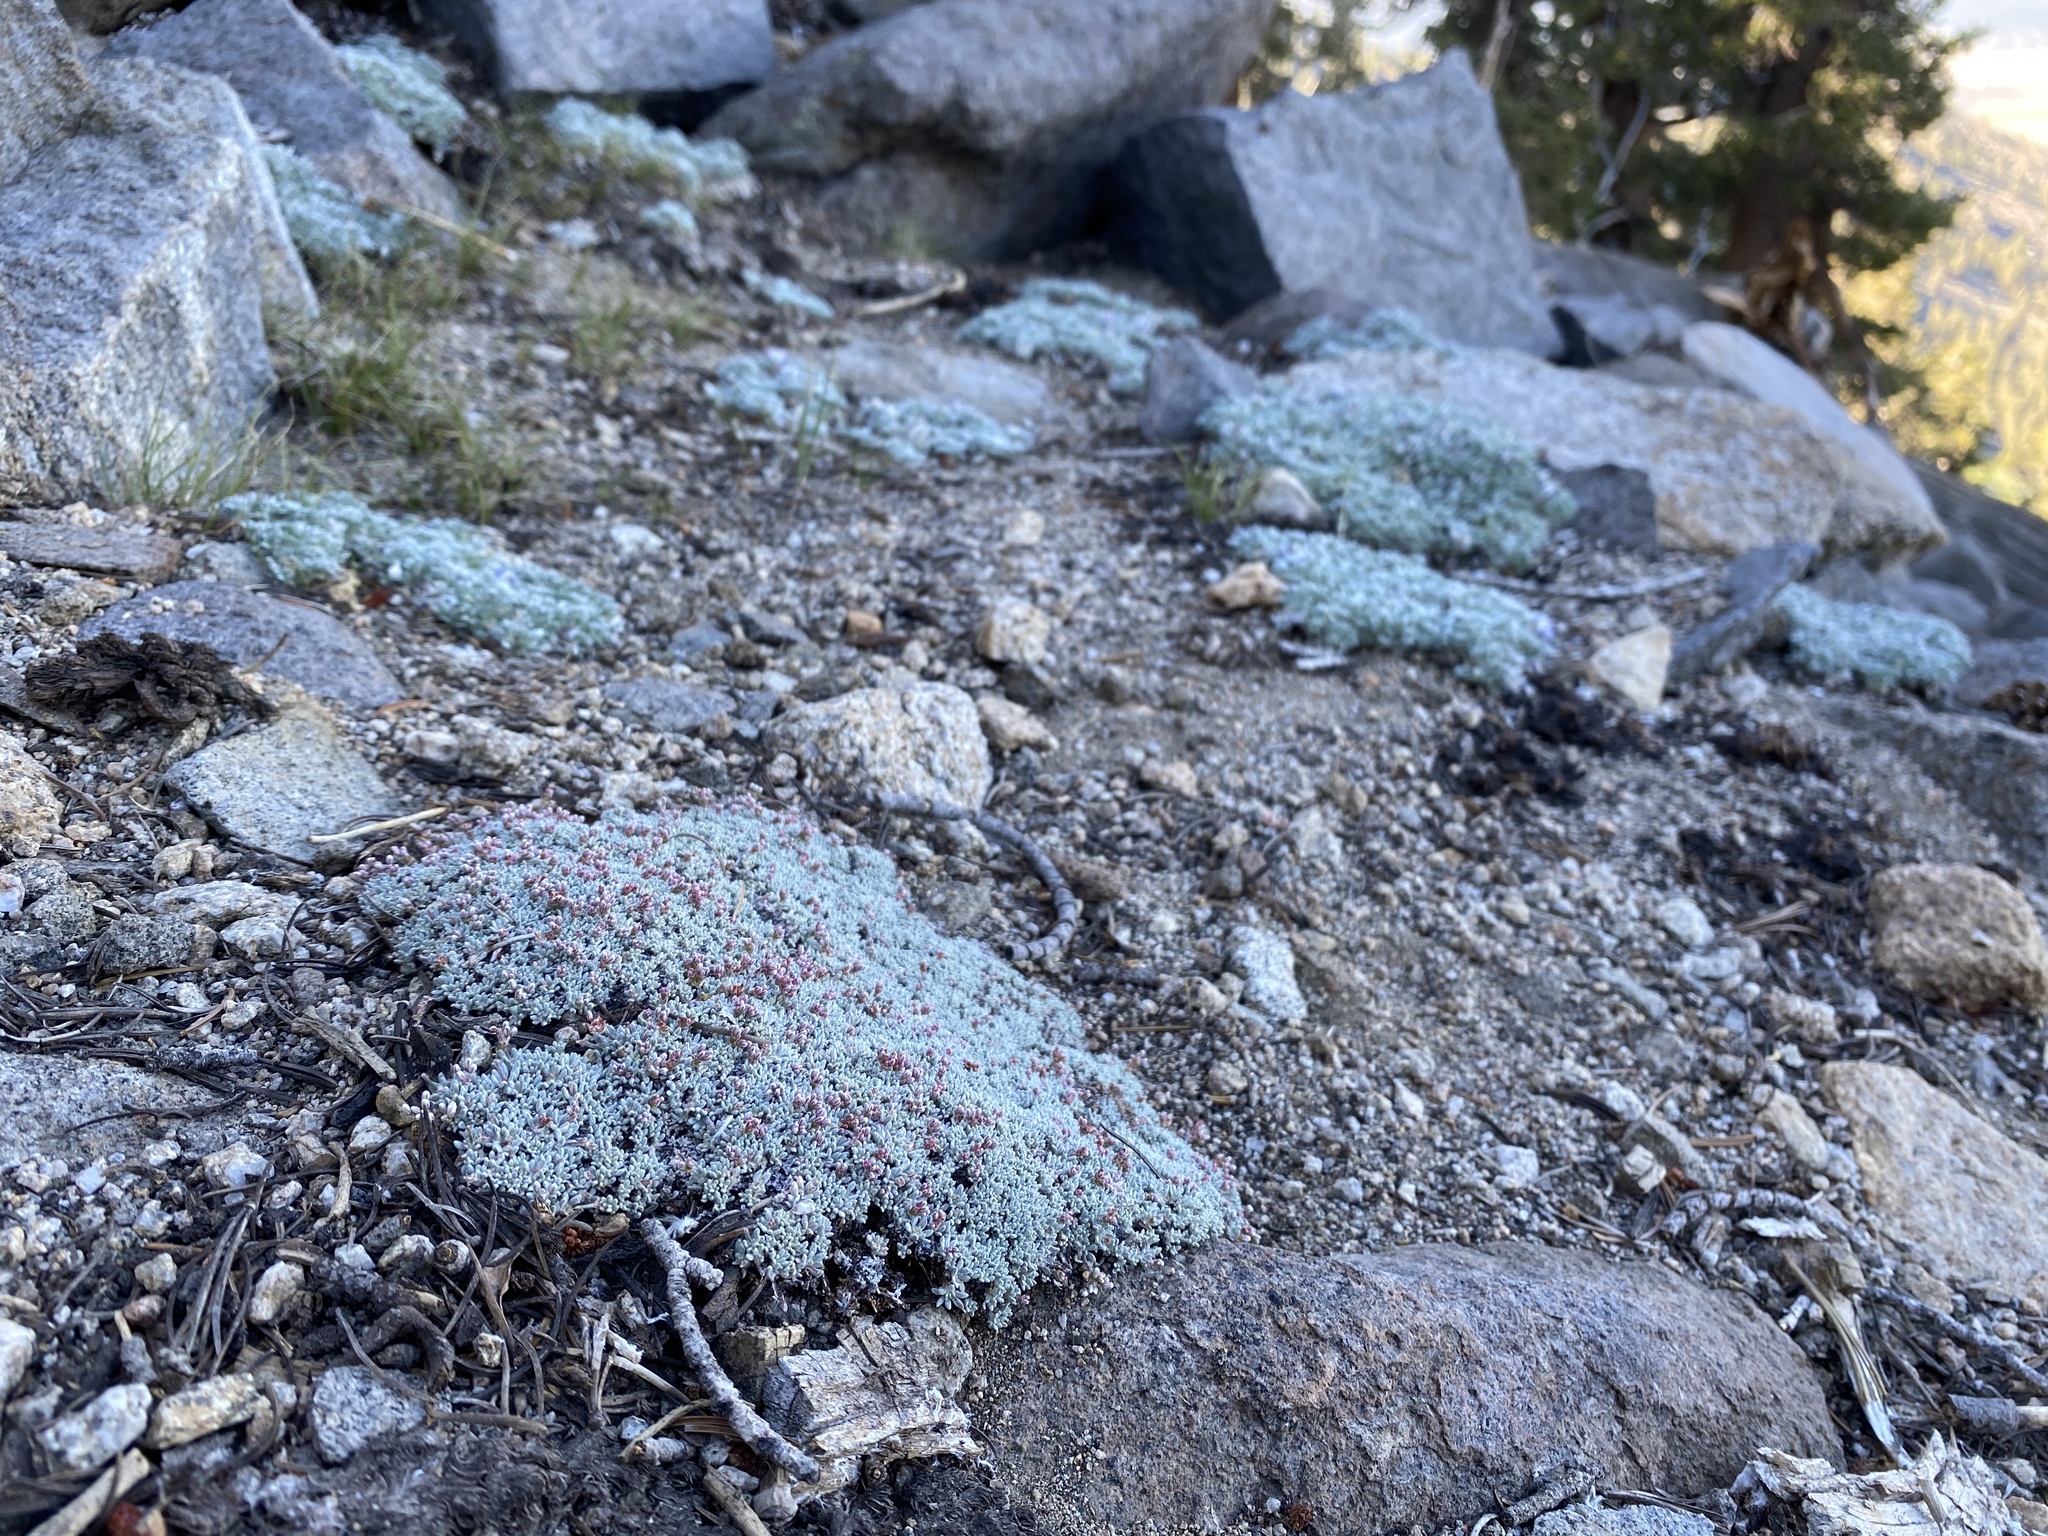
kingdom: Plantae
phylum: Tracheophyta
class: Magnoliopsida
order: Caryophyllales
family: Polygonaceae
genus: Eriogonum
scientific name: Eriogonum wrightii
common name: Bastard-sage
